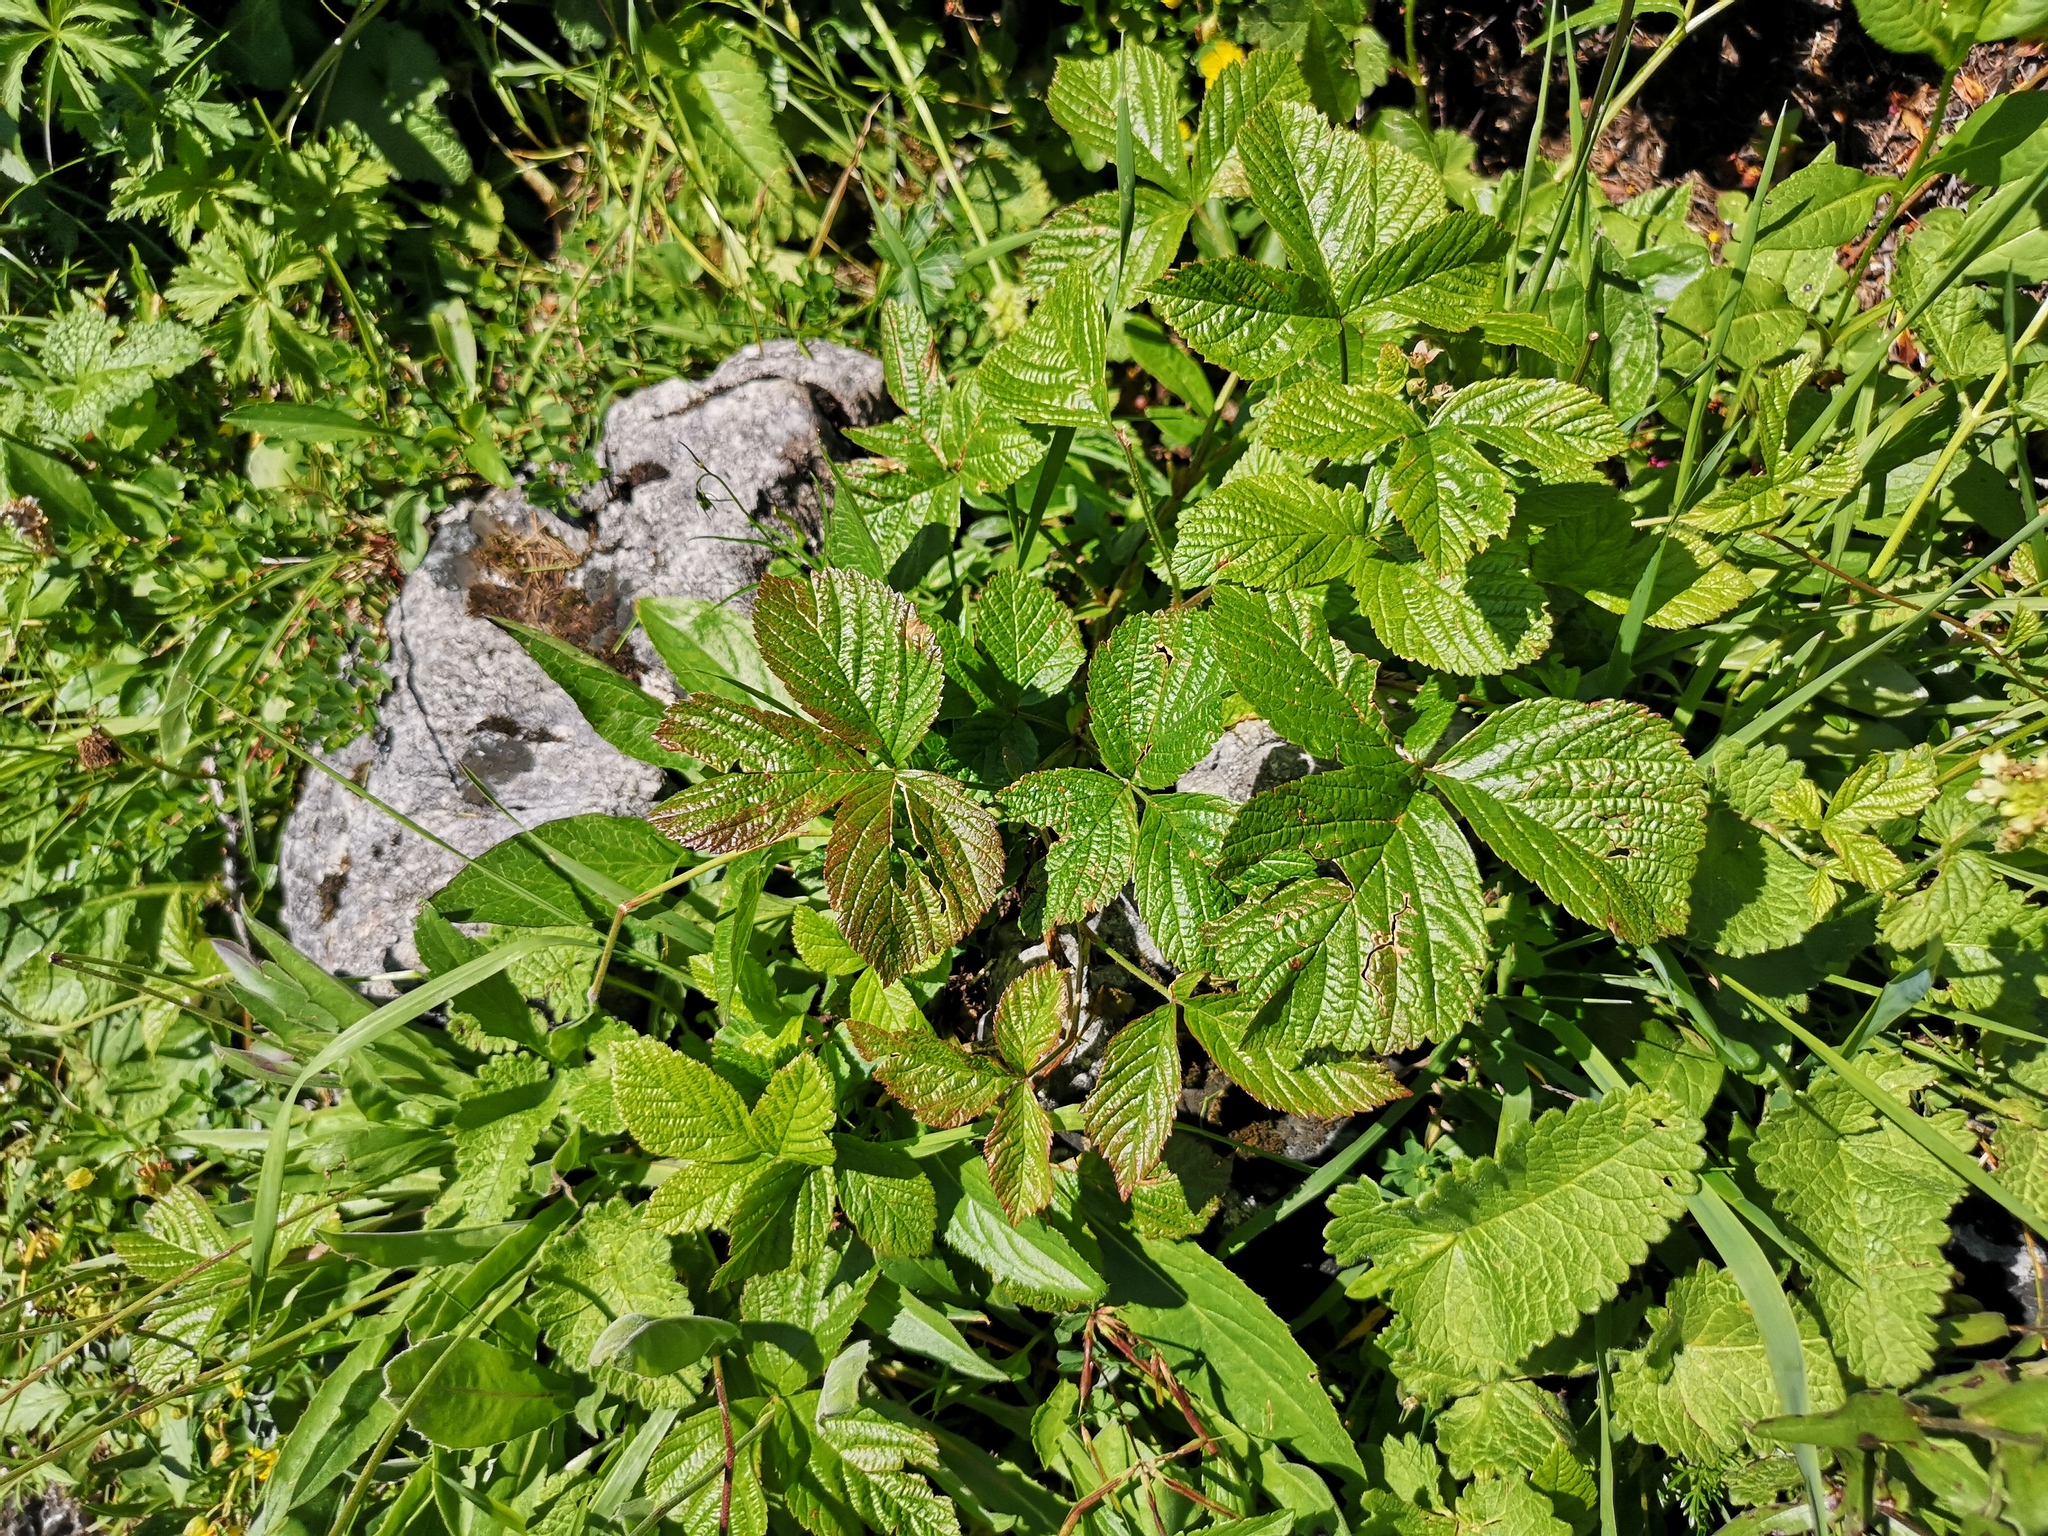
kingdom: Plantae
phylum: Tracheophyta
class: Magnoliopsida
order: Rosales
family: Rosaceae
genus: Rubus
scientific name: Rubus saxatilis
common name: Stone bramble
